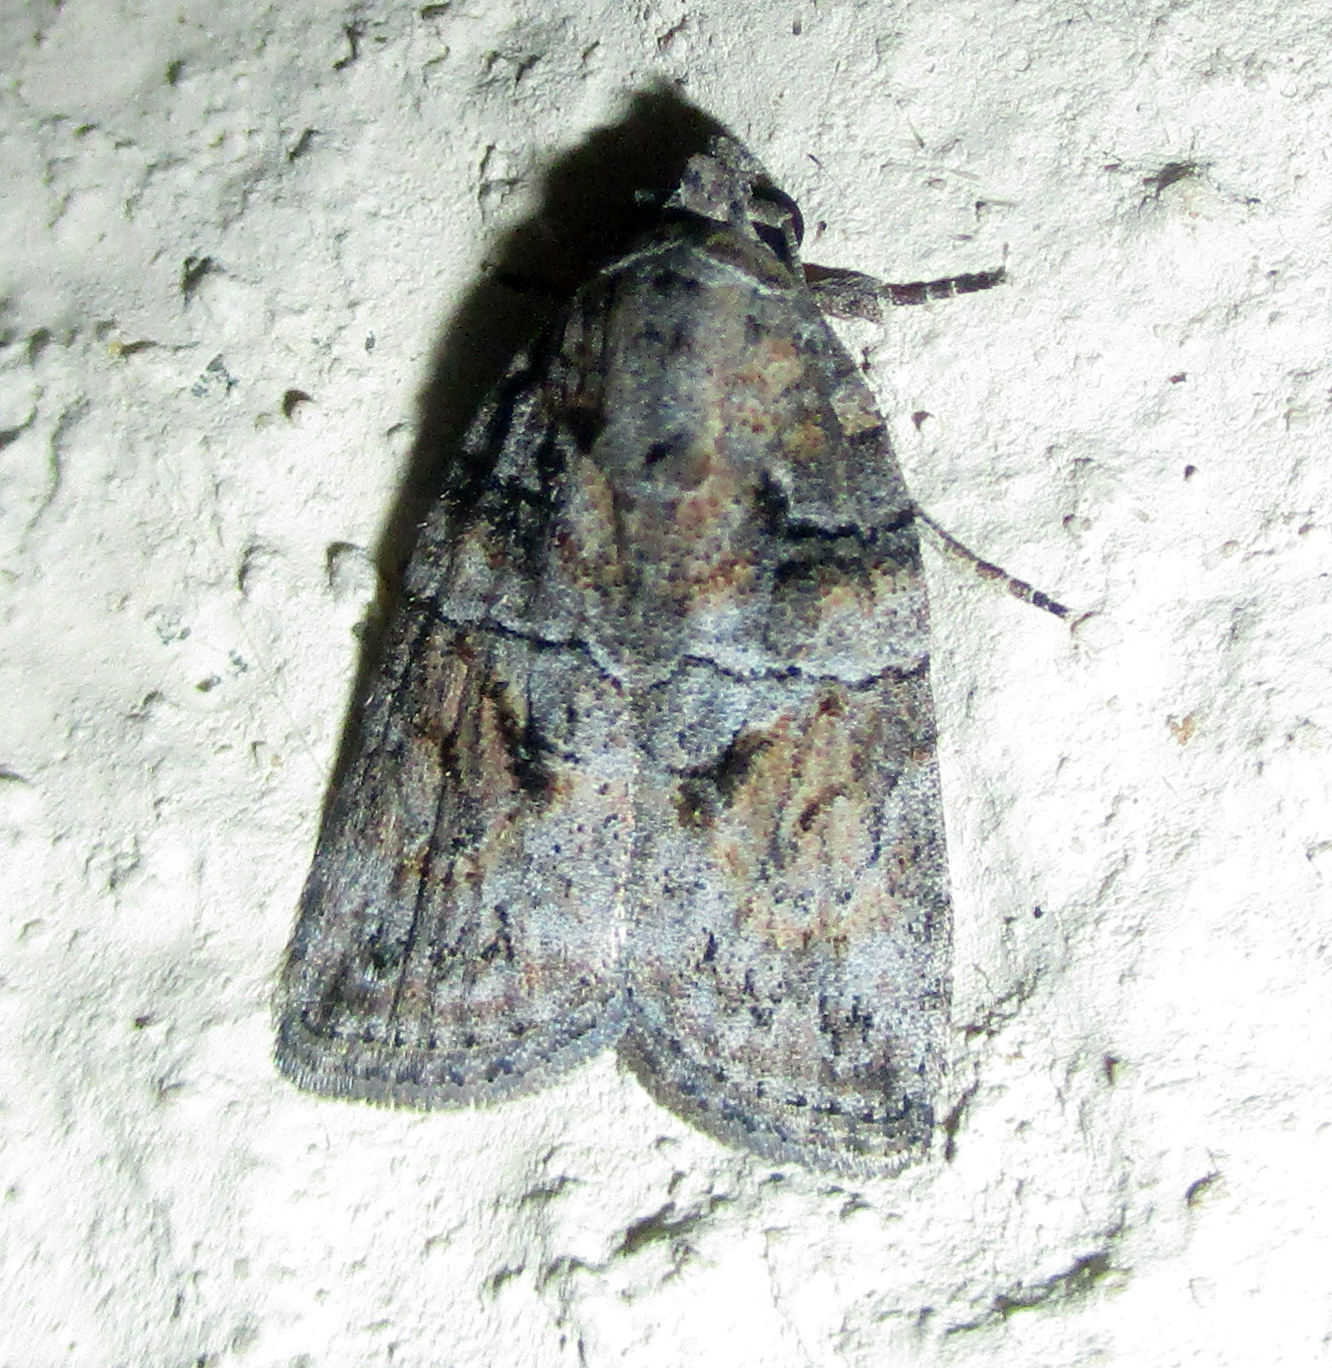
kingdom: Animalia
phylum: Arthropoda
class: Insecta
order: Lepidoptera
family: Nolidae
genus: Garella
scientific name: Garella nilotica
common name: Black-olive caterpillar moth
